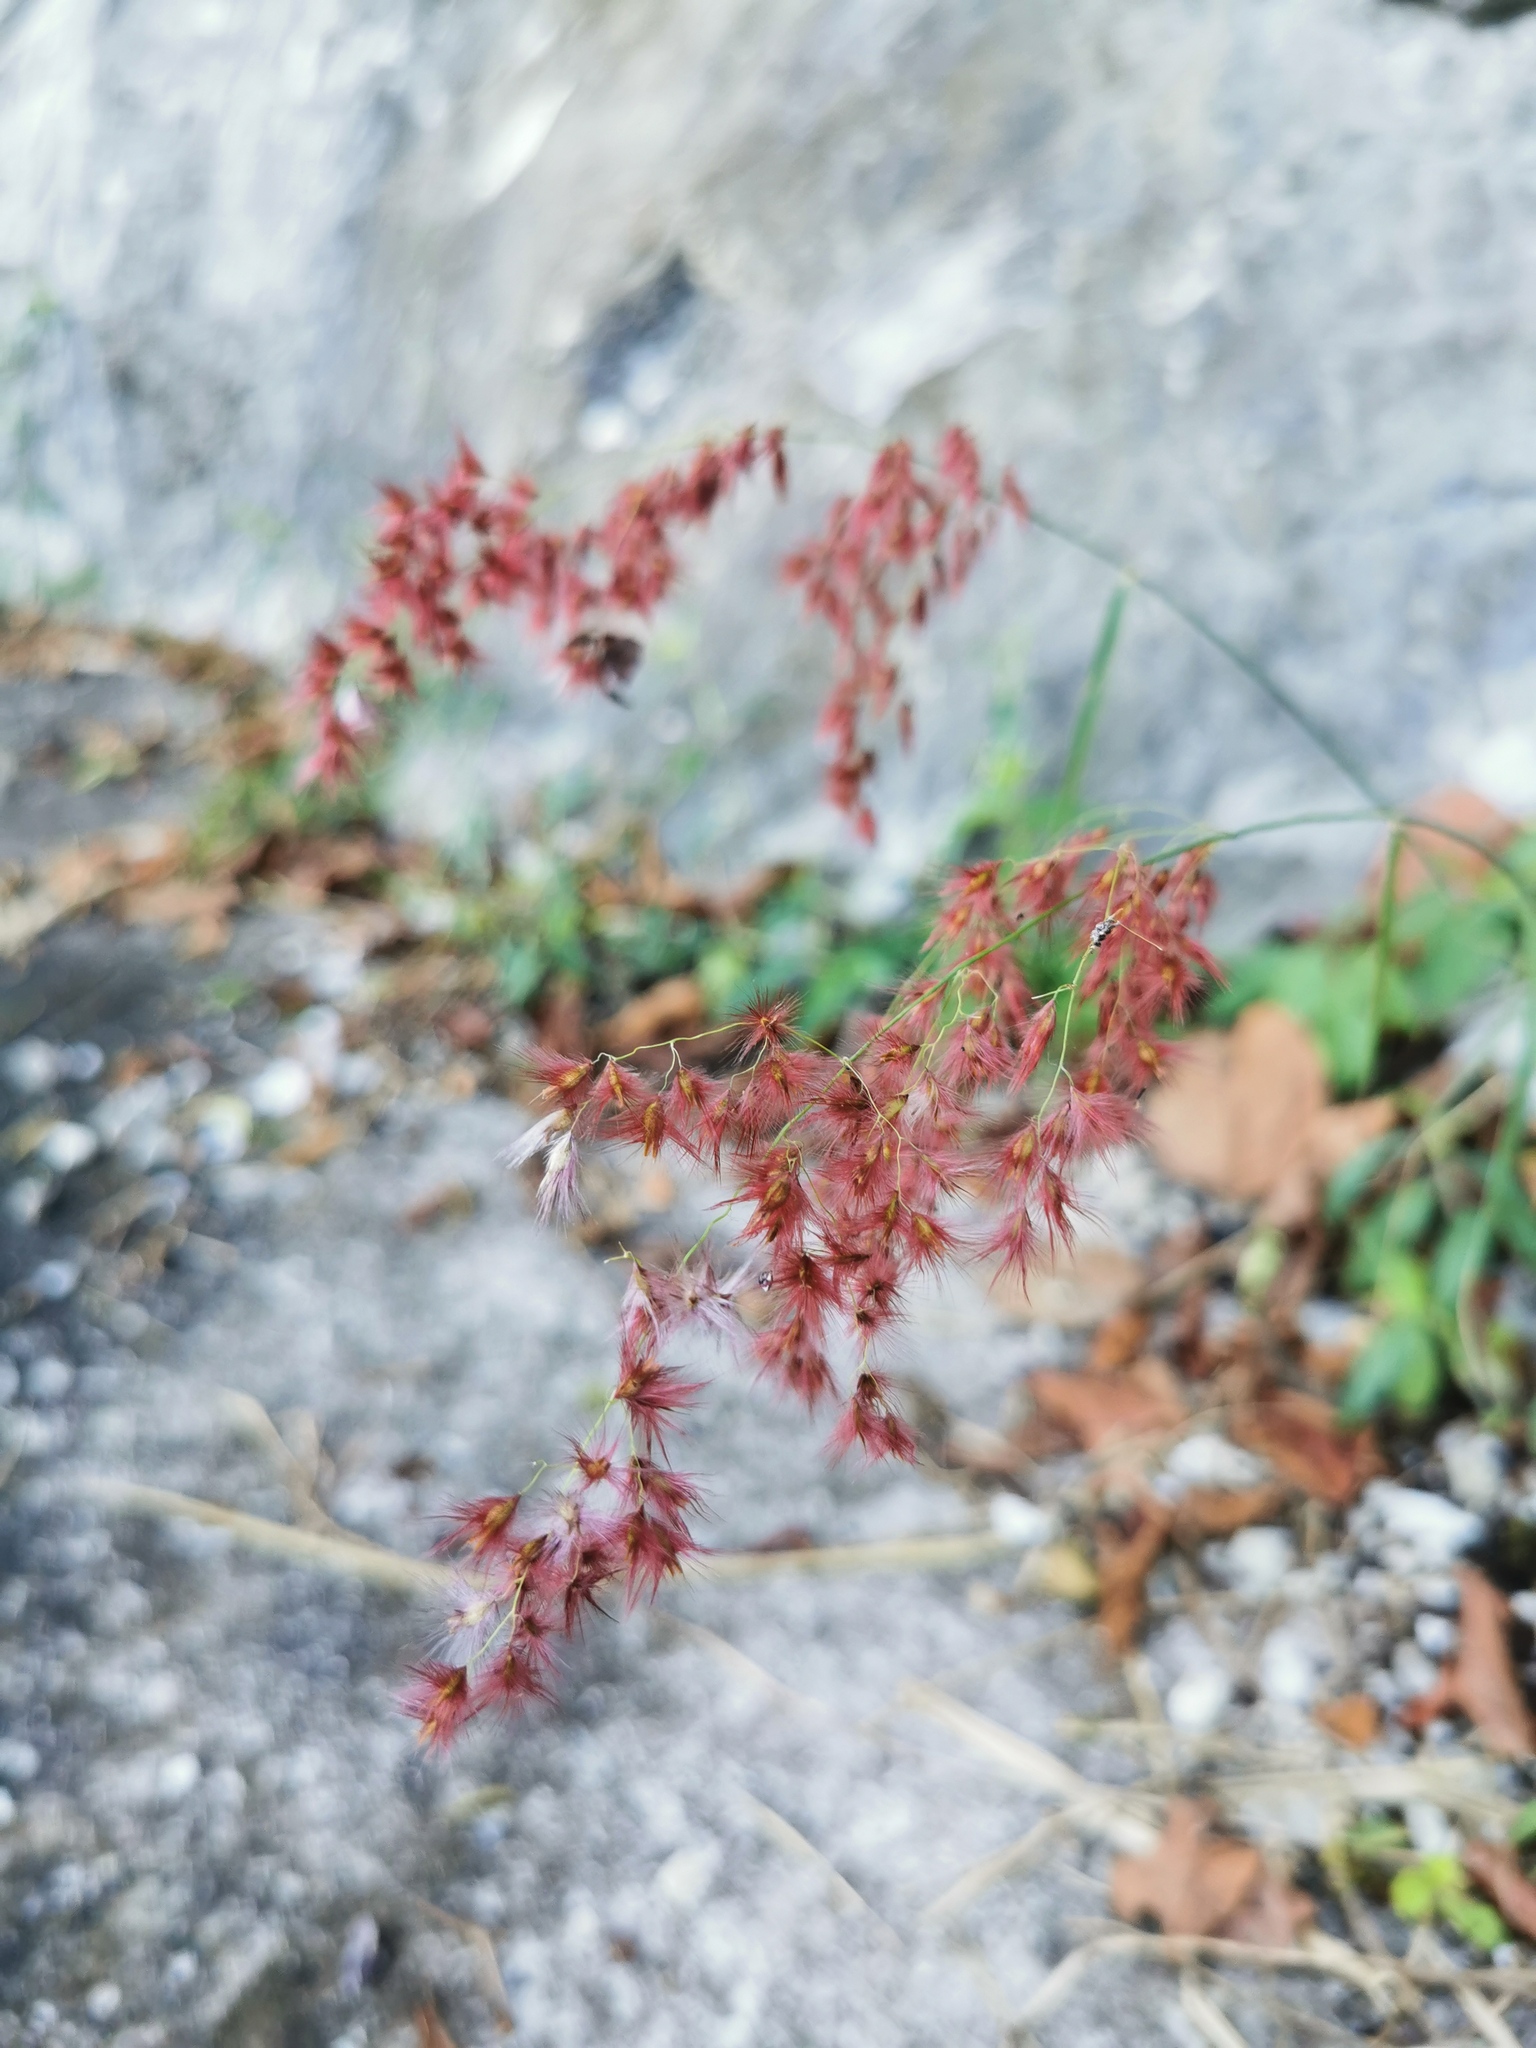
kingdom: Plantae
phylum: Tracheophyta
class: Liliopsida
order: Poales
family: Poaceae
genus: Melinis
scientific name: Melinis repens
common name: Rose natal grass
